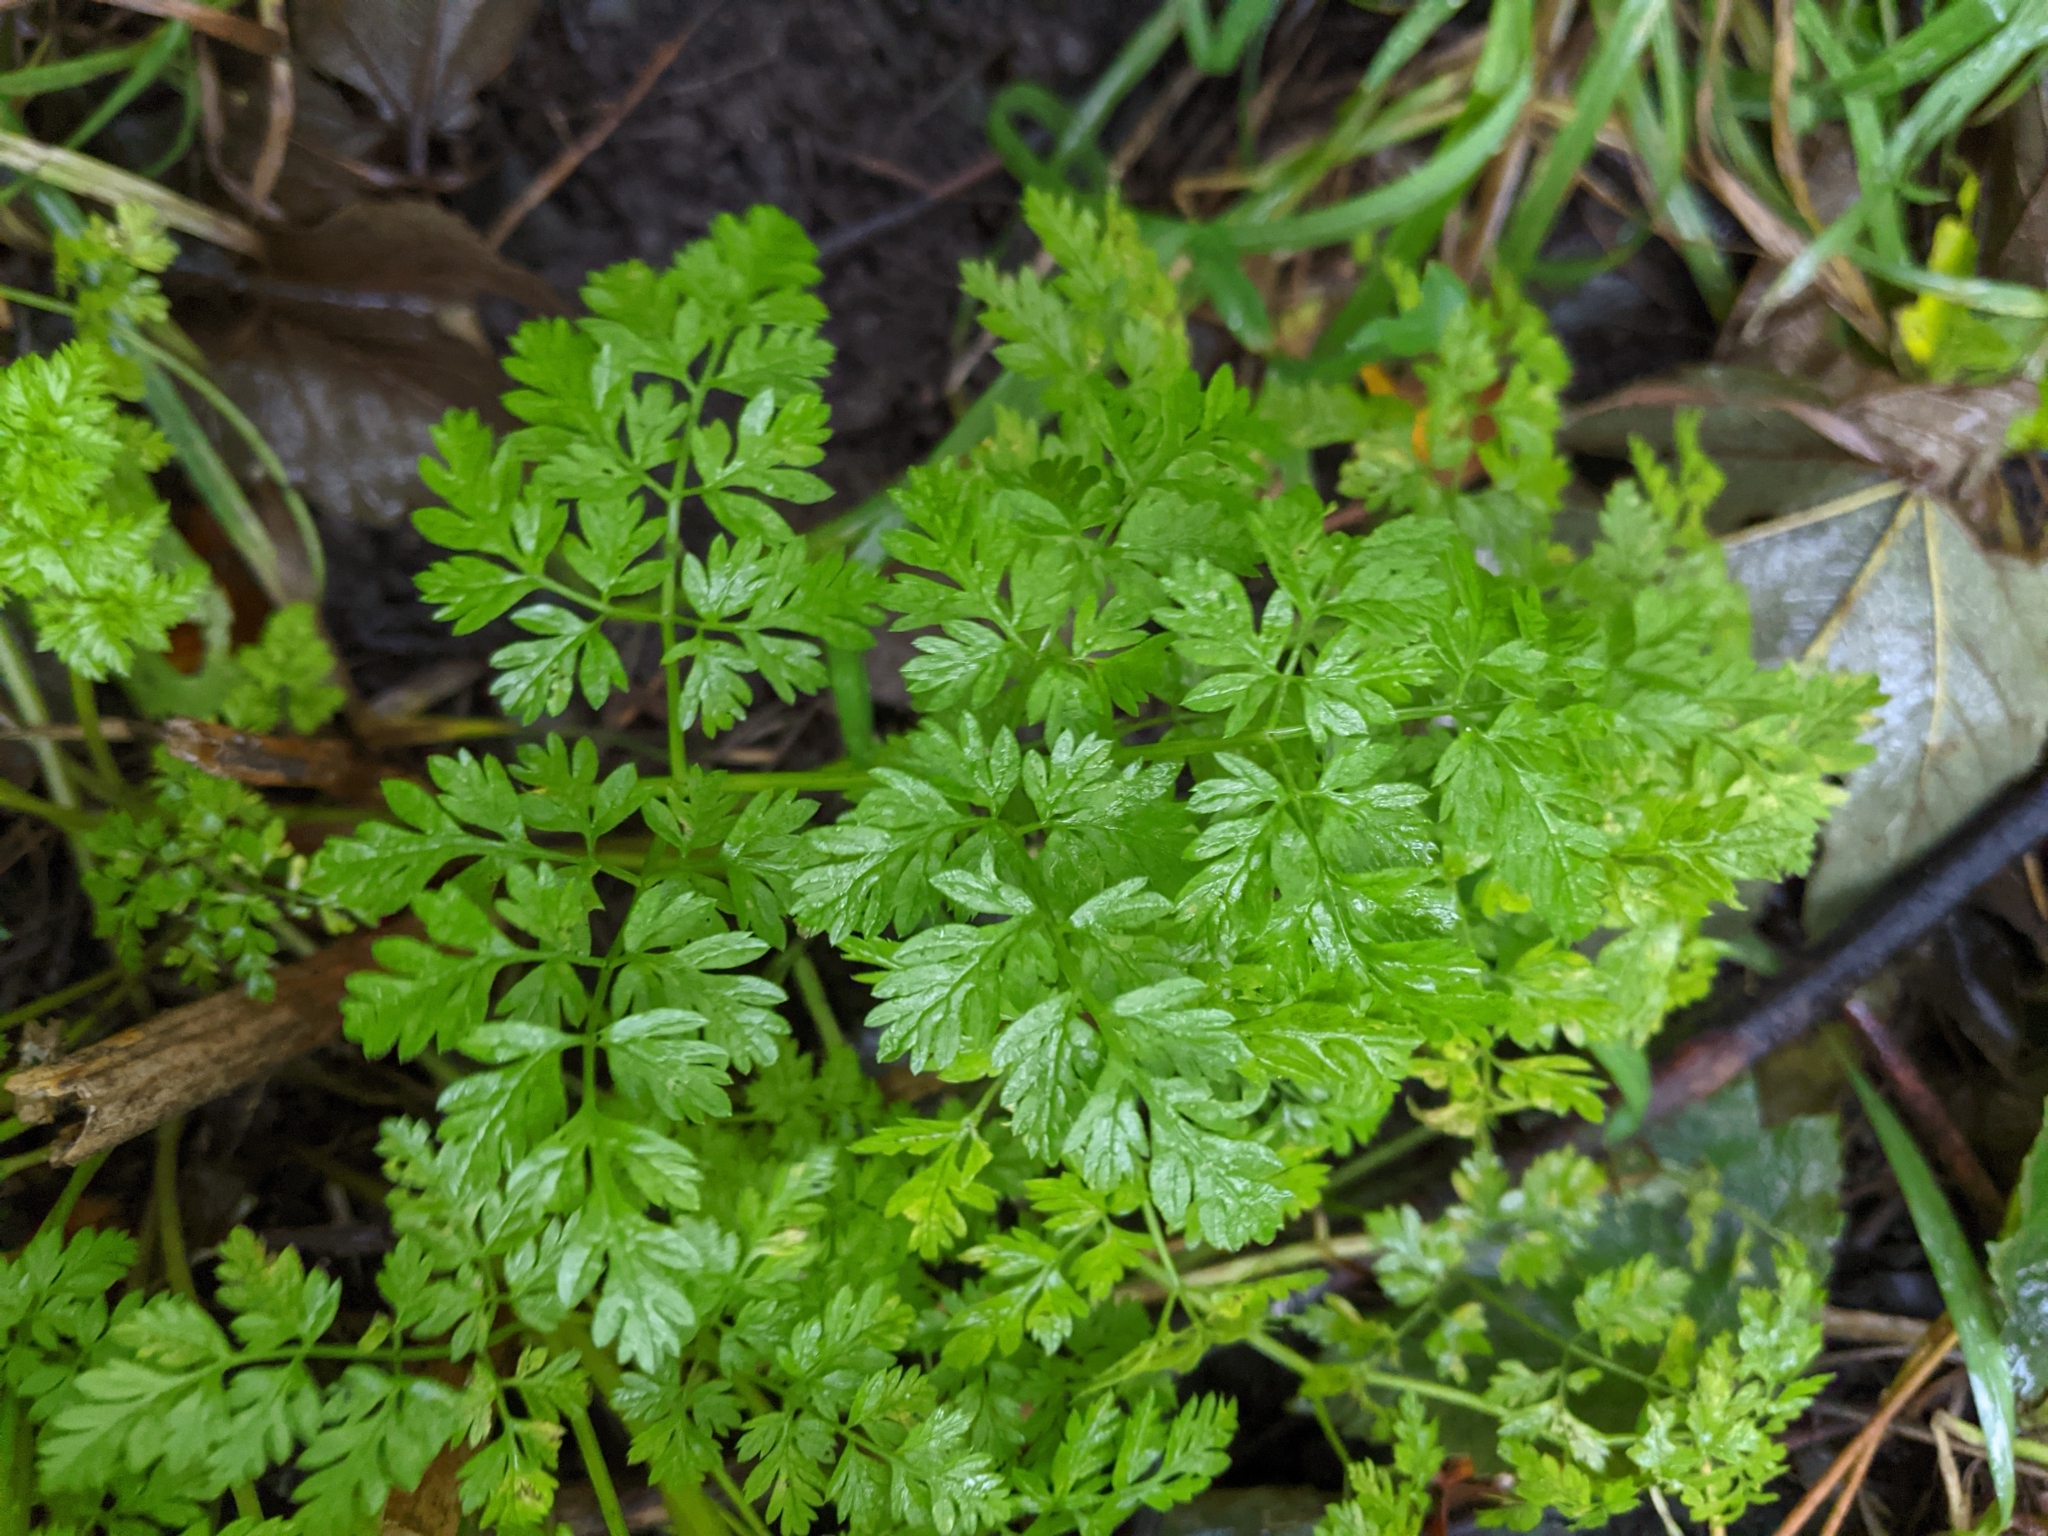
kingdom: Plantae
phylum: Tracheophyta
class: Magnoliopsida
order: Apiales
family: Apiaceae
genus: Anthriscus
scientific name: Anthriscus sylvestris
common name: Cow parsley
